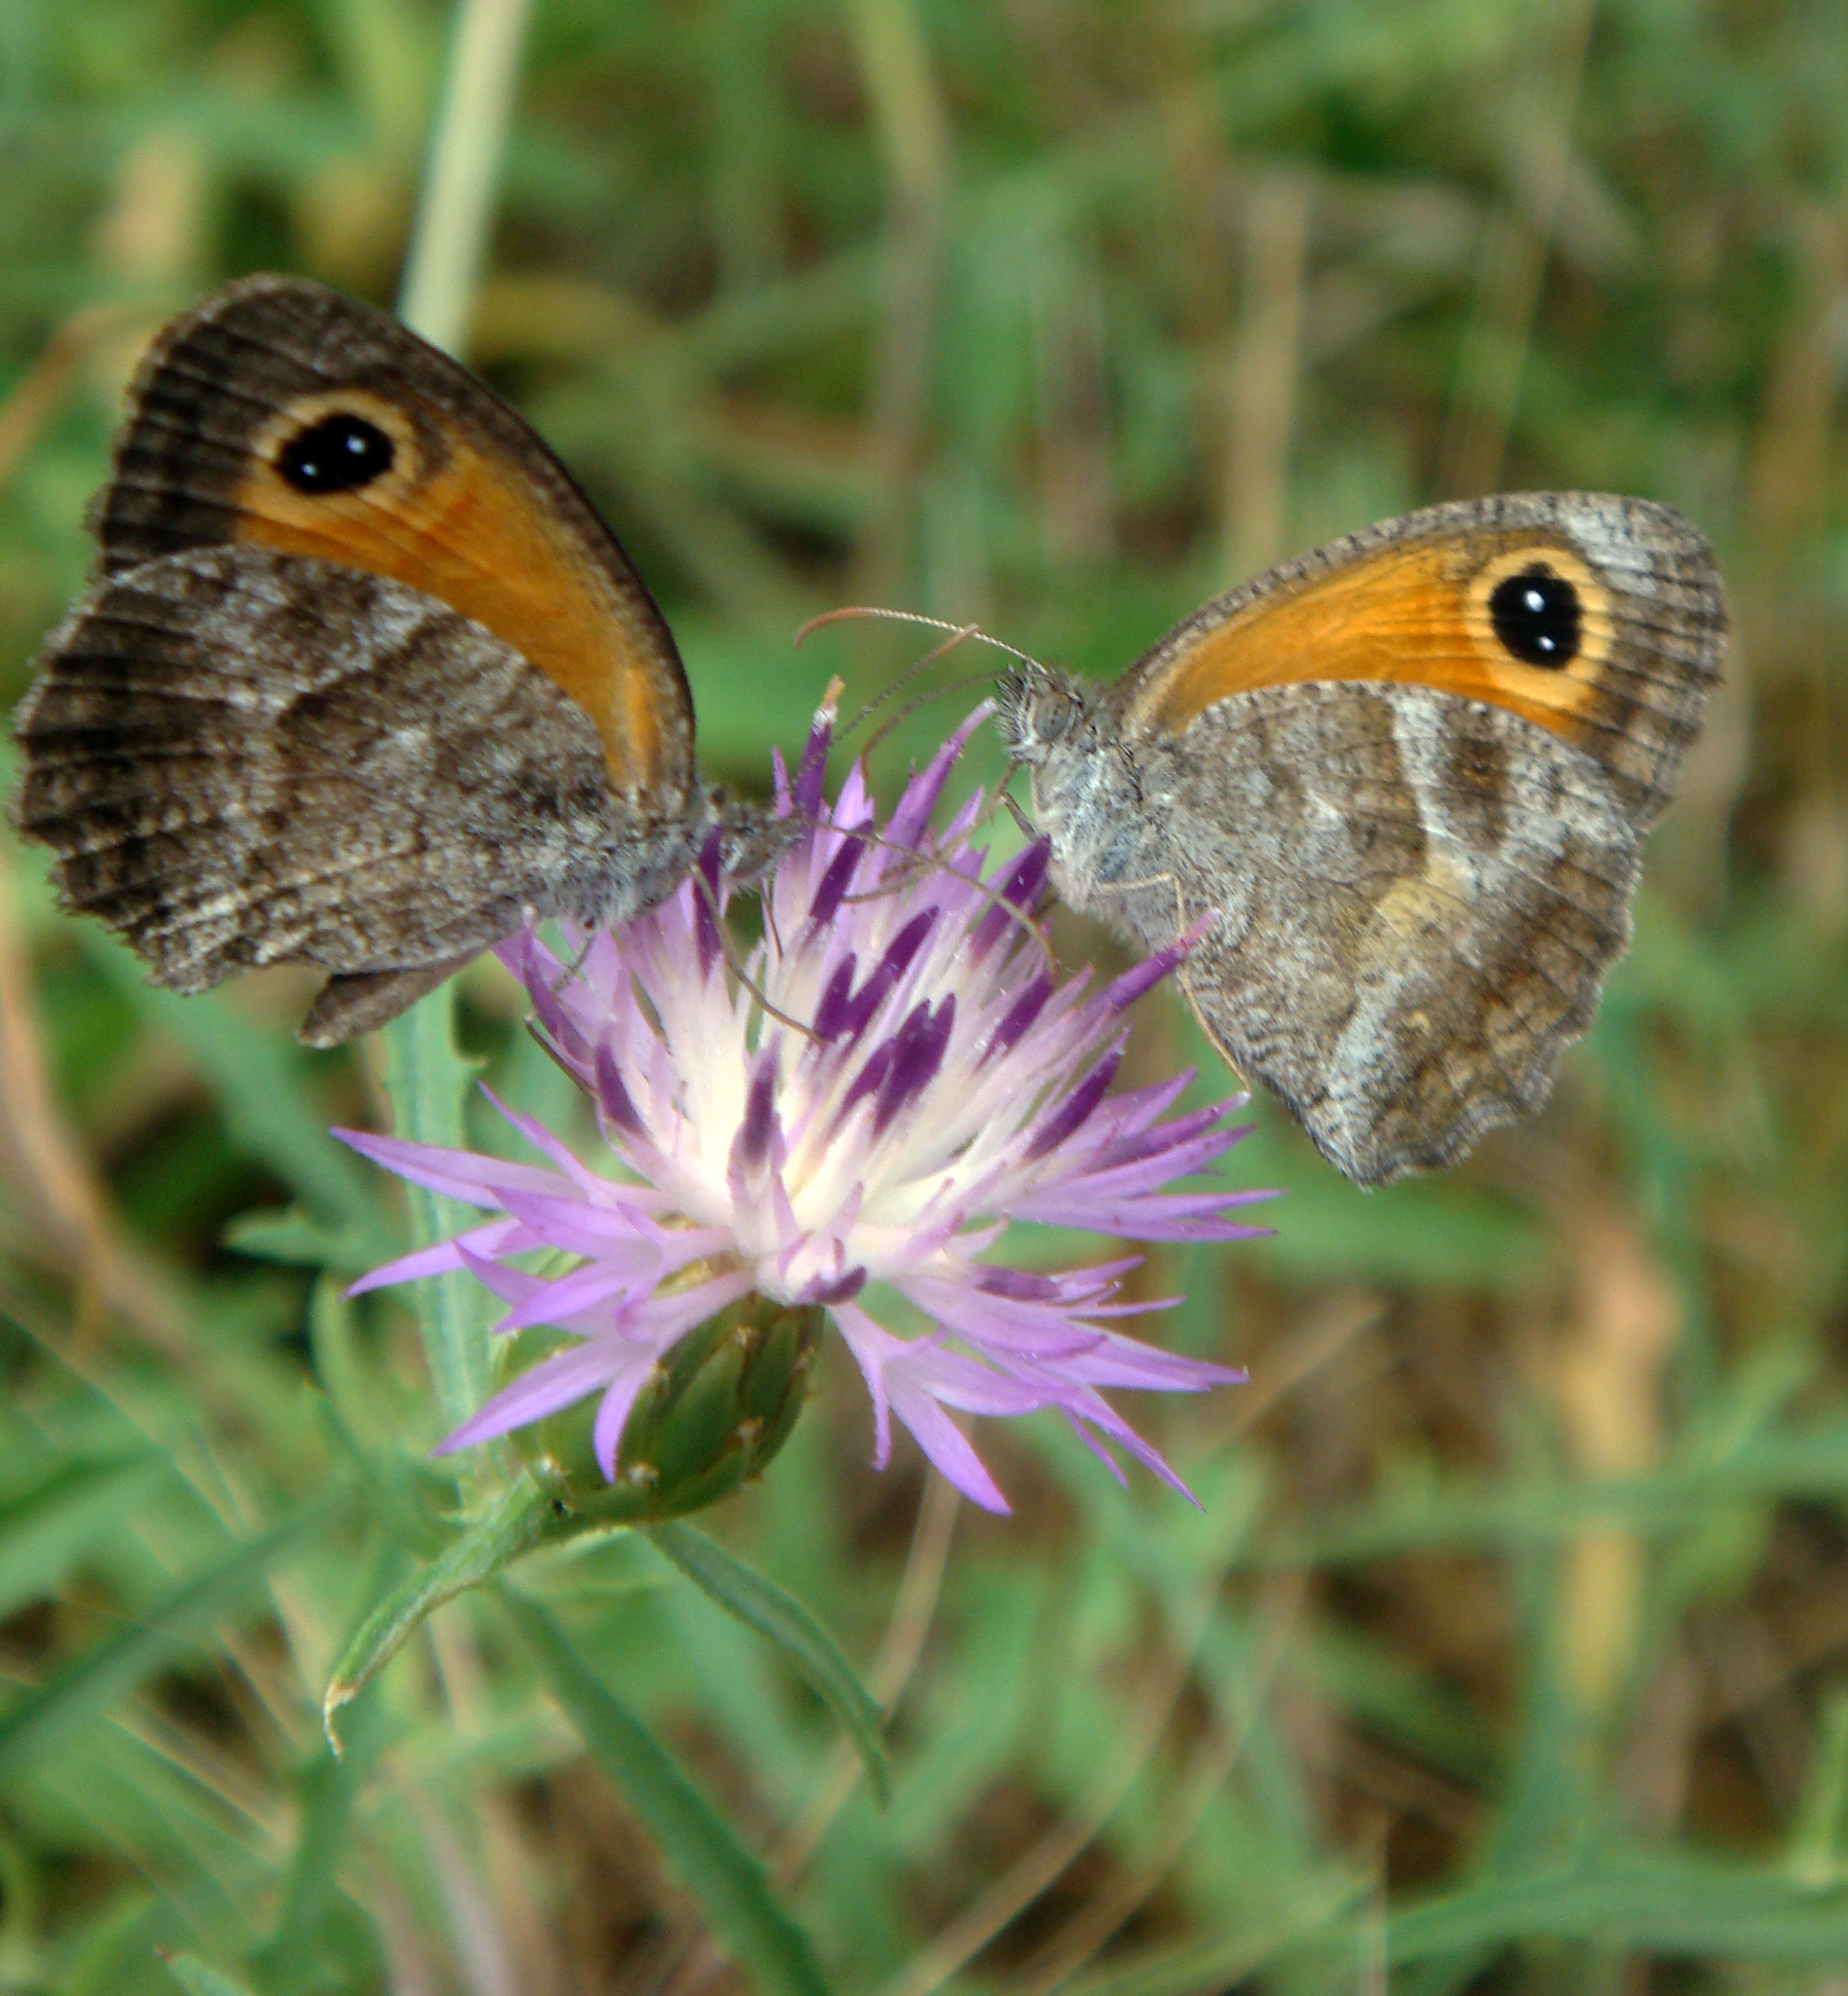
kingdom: Animalia
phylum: Arthropoda
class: Insecta
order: Lepidoptera
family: Nymphalidae
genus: Pyronia
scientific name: Pyronia cecilia
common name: Southern gatekeeper
